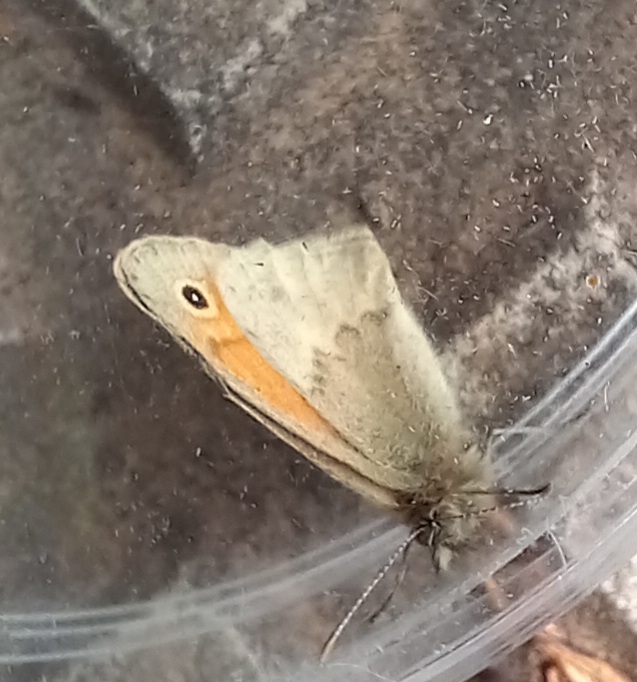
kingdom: Animalia
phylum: Arthropoda
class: Insecta
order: Lepidoptera
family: Nymphalidae
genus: Coenonympha
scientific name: Coenonympha pamphilus
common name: Small heath
